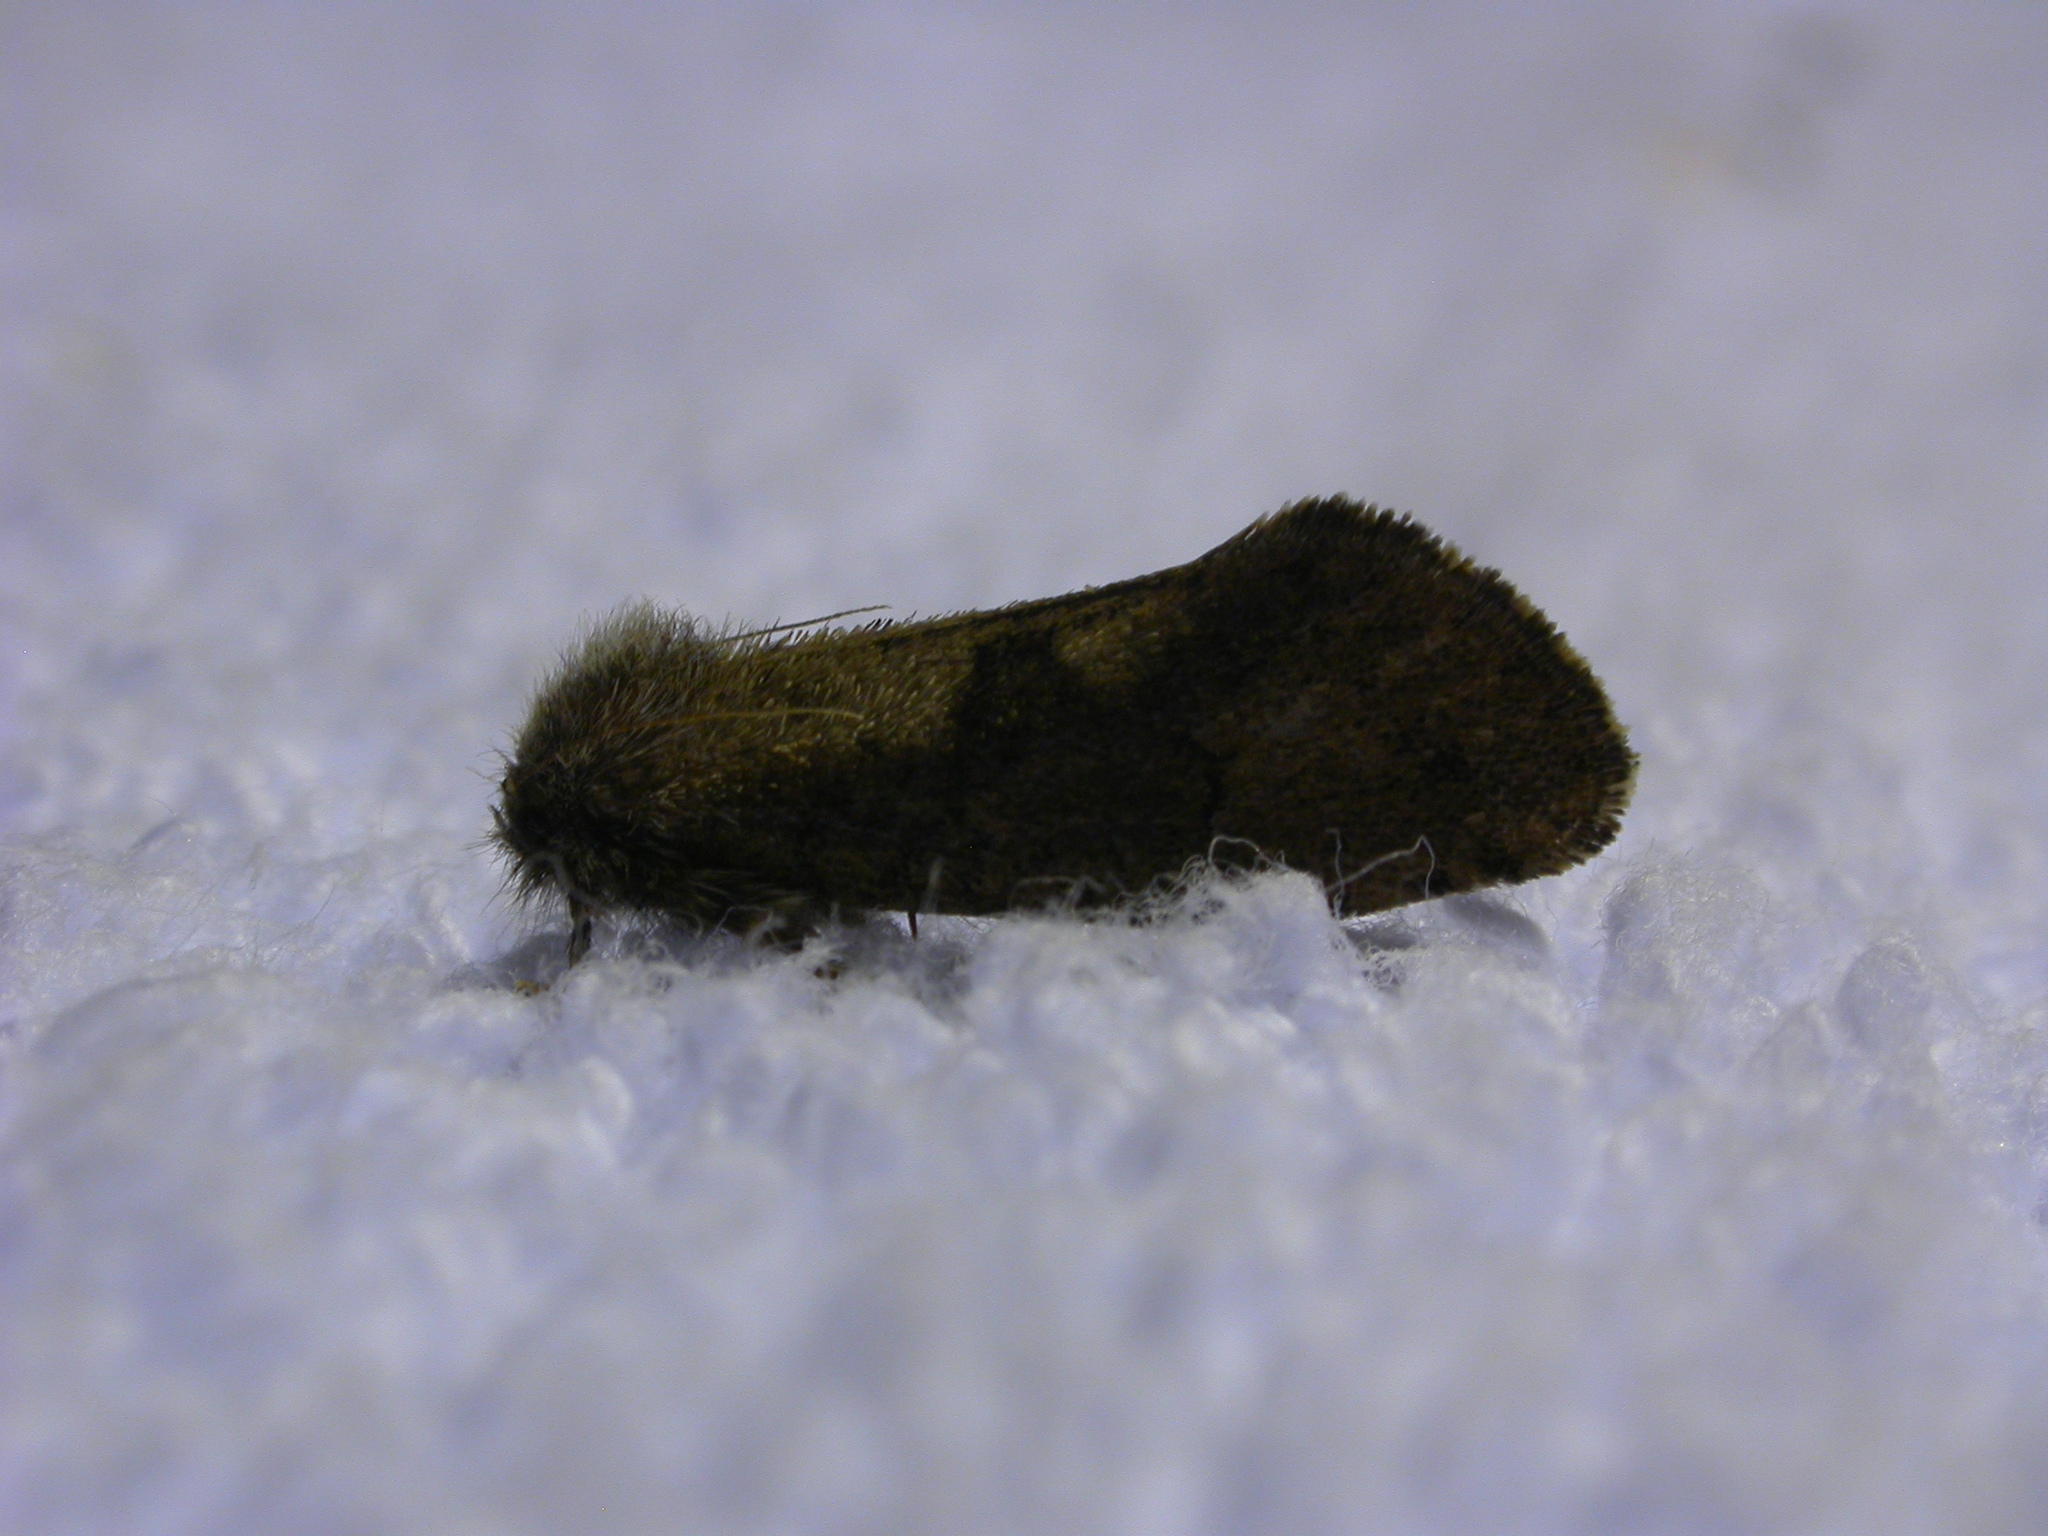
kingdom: Animalia
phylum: Arthropoda
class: Insecta
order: Lepidoptera
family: Tineidae
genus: Acrolophus
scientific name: Acrolophus mora
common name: Dark acrolophus
